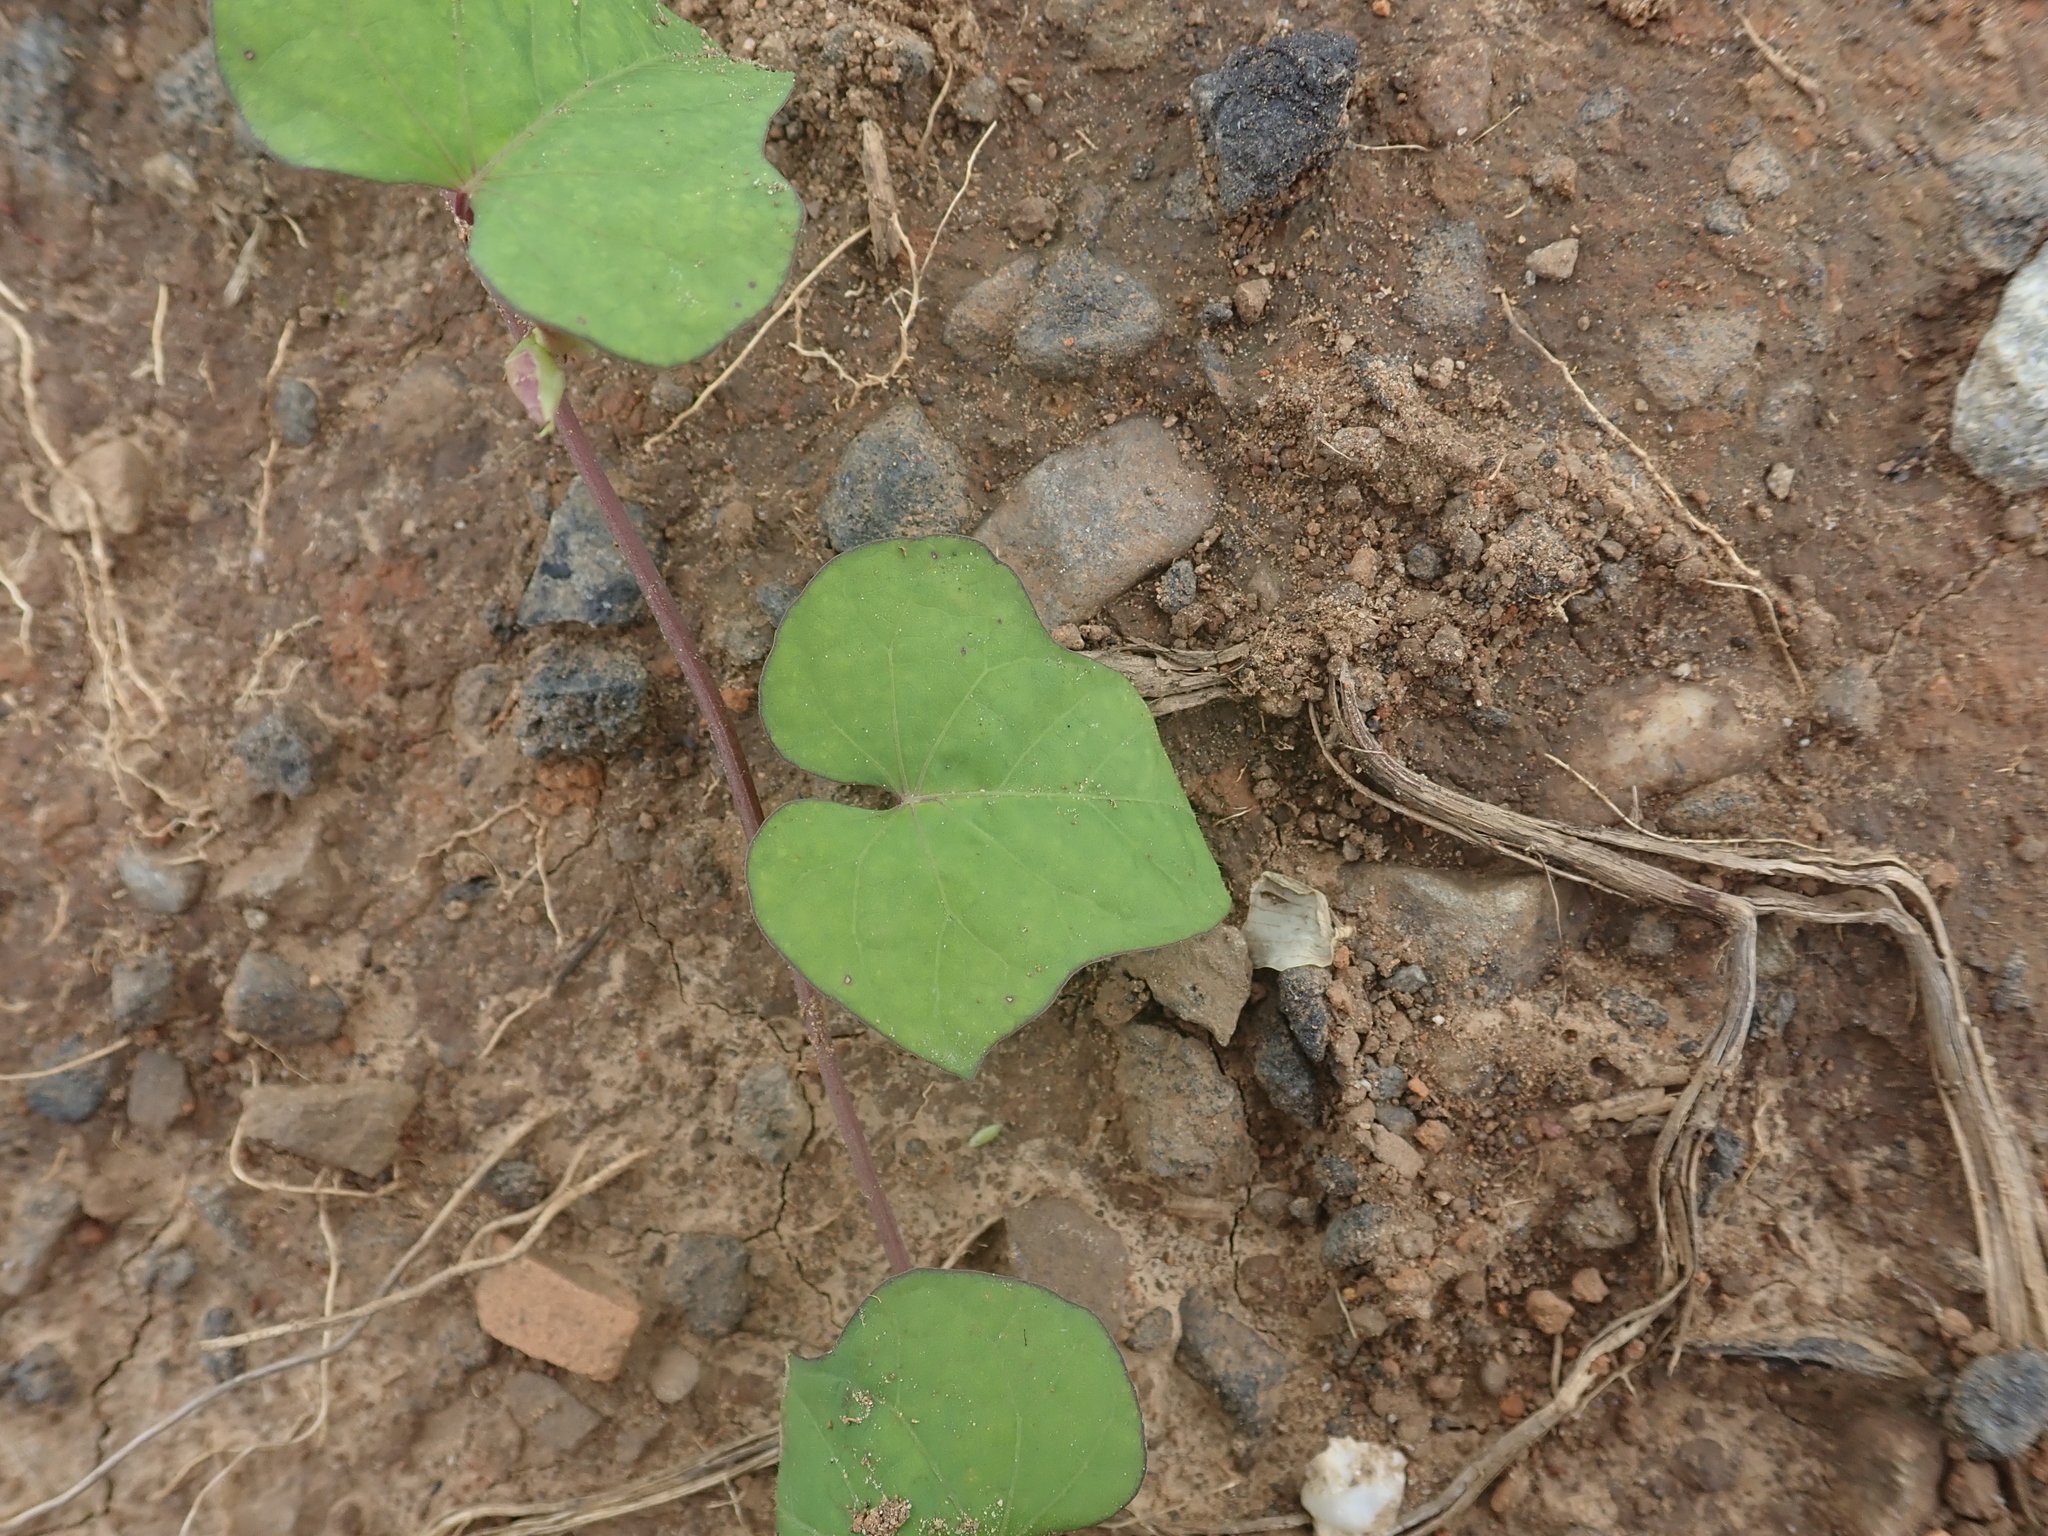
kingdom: Plantae
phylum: Tracheophyta
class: Magnoliopsida
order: Solanales
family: Convolvulaceae
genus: Ipomoea
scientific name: Ipomoea triloba
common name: Little-bell
